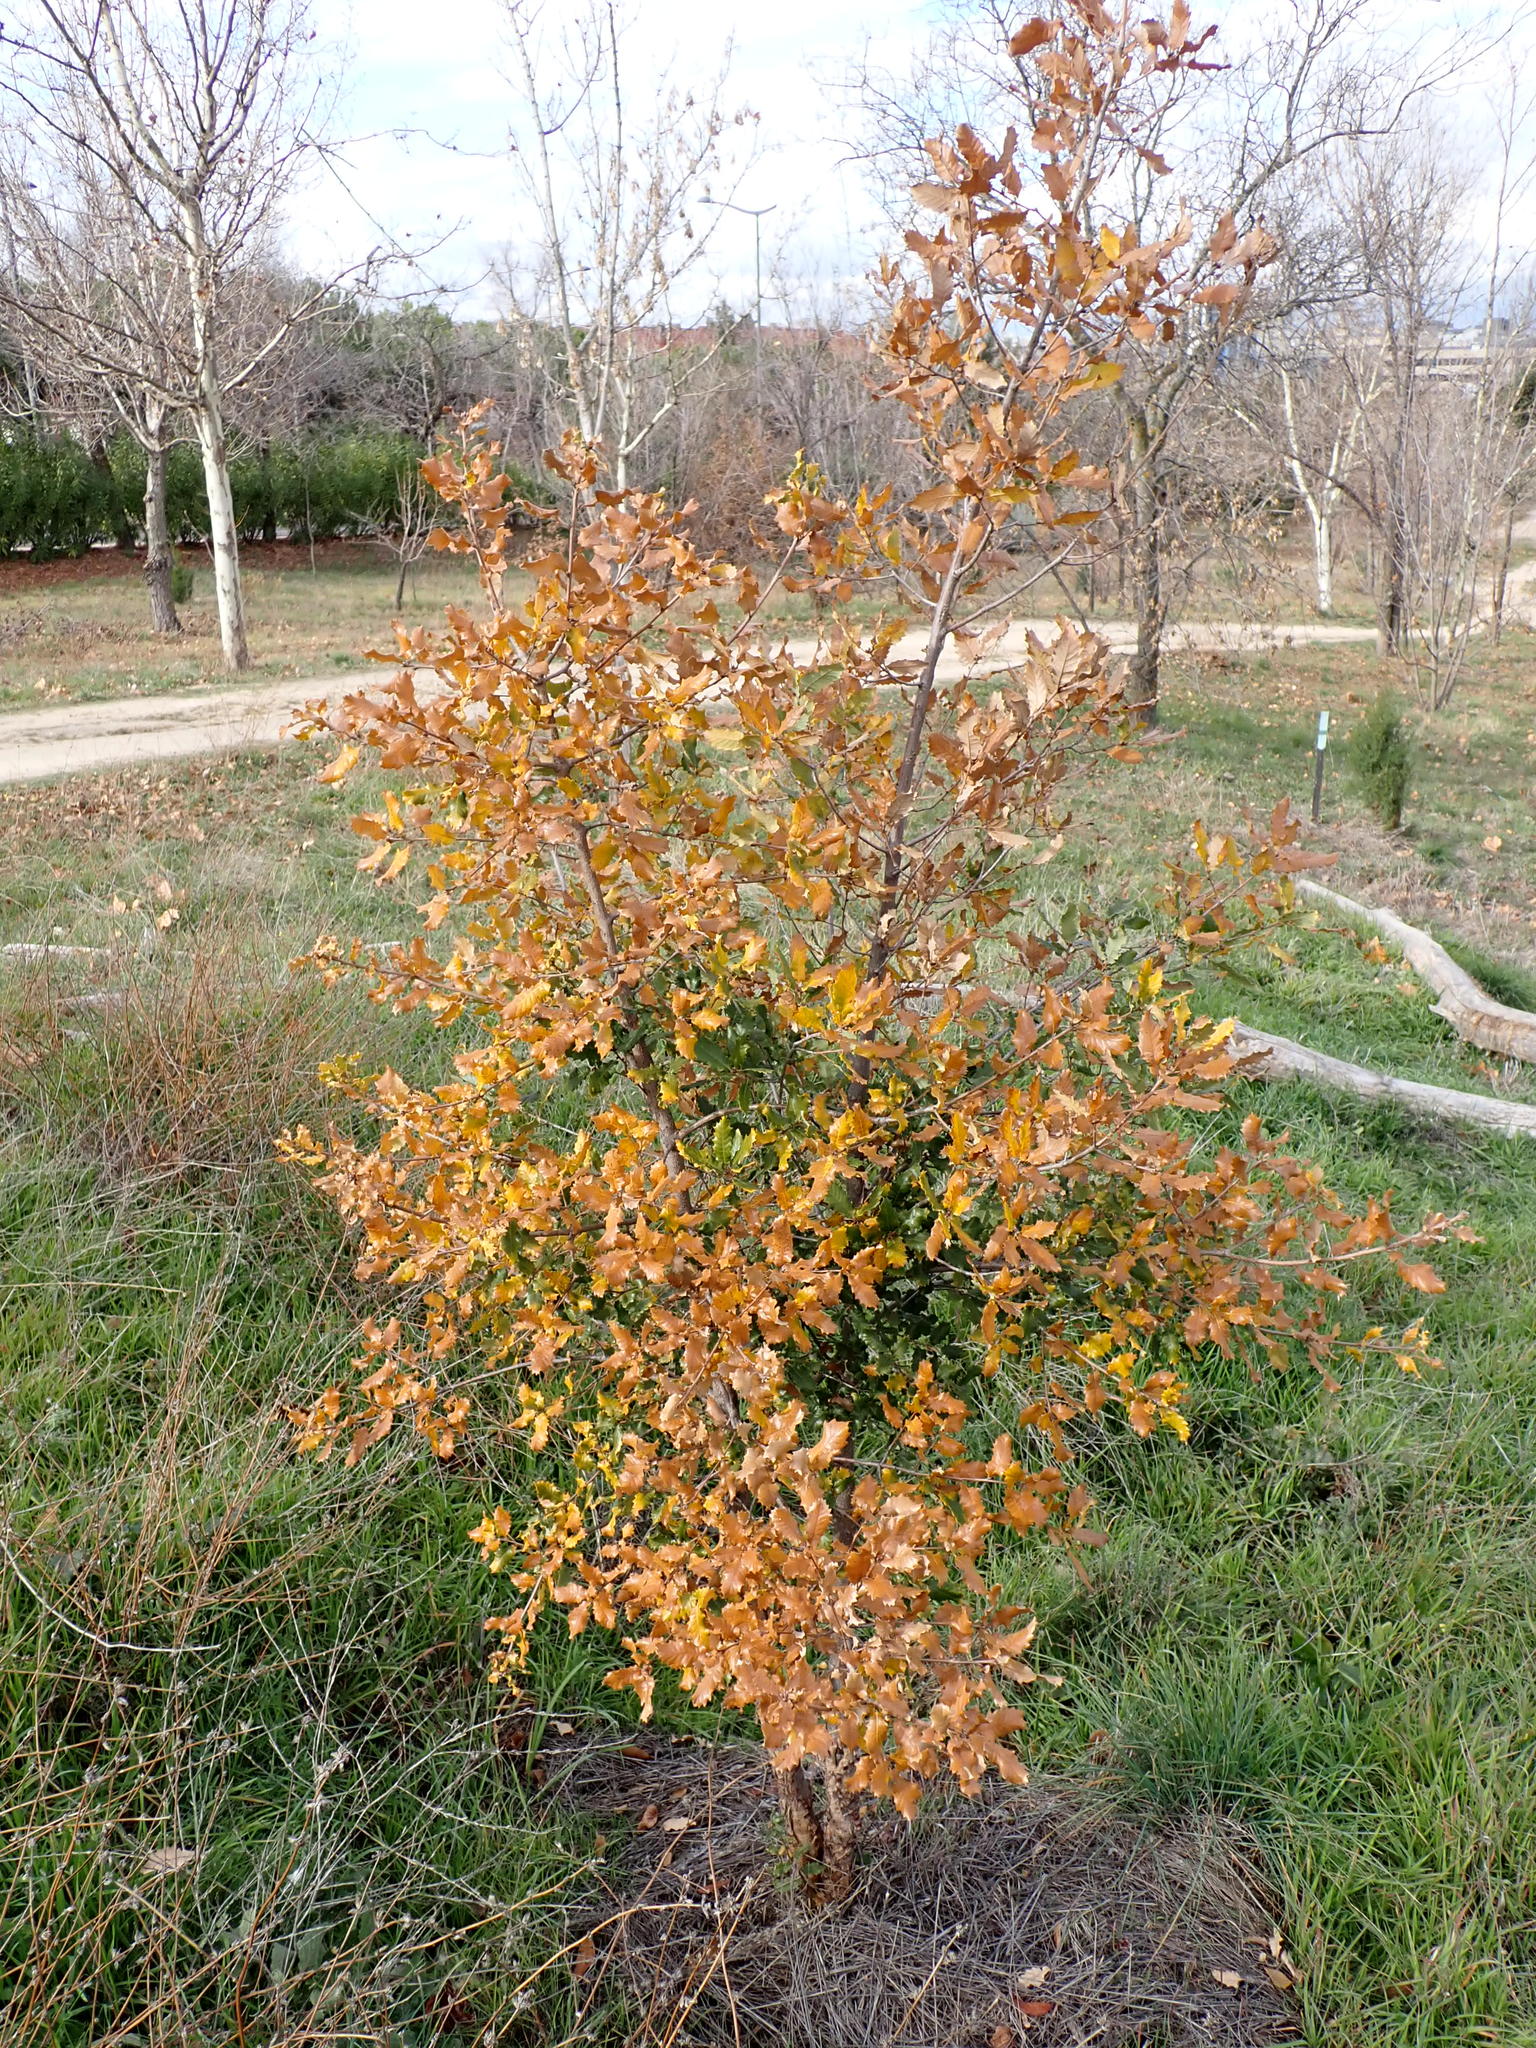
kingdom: Plantae
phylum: Tracheophyta
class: Magnoliopsida
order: Fagales
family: Fagaceae
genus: Quercus
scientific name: Quercus faginea
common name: Gall oak tree
